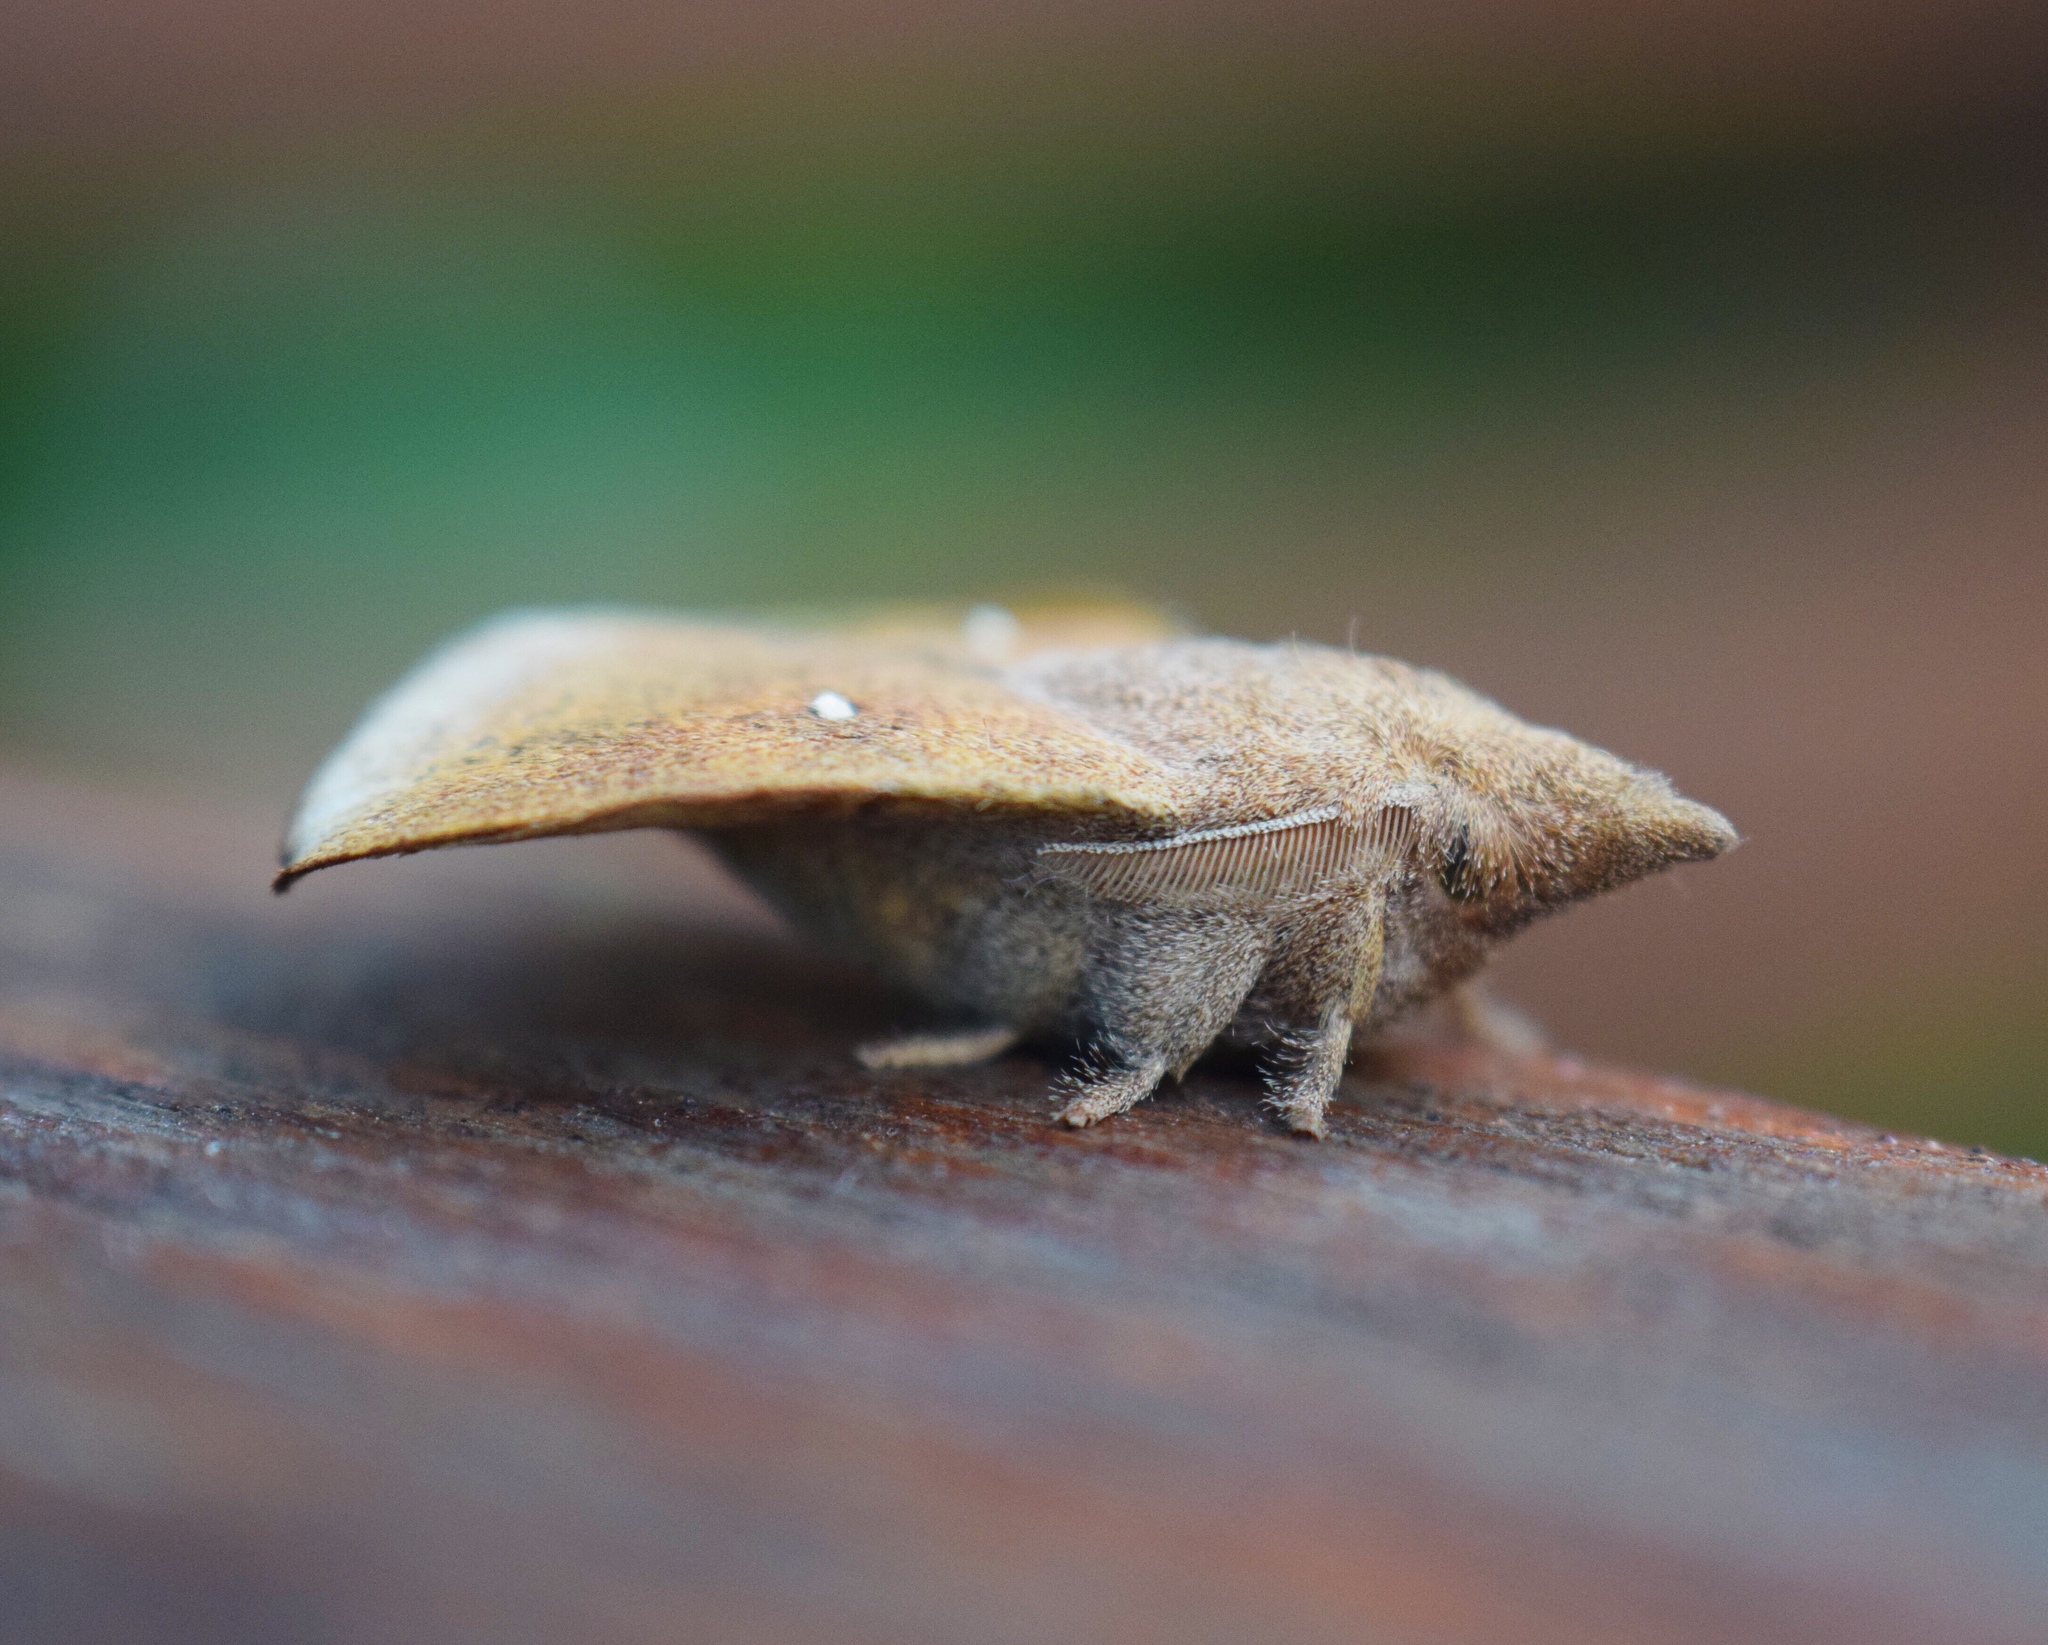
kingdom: Animalia
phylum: Arthropoda
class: Insecta
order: Lepidoptera
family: Lasiocampidae
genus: Leipoxais
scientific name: Leipoxais peraffinis
